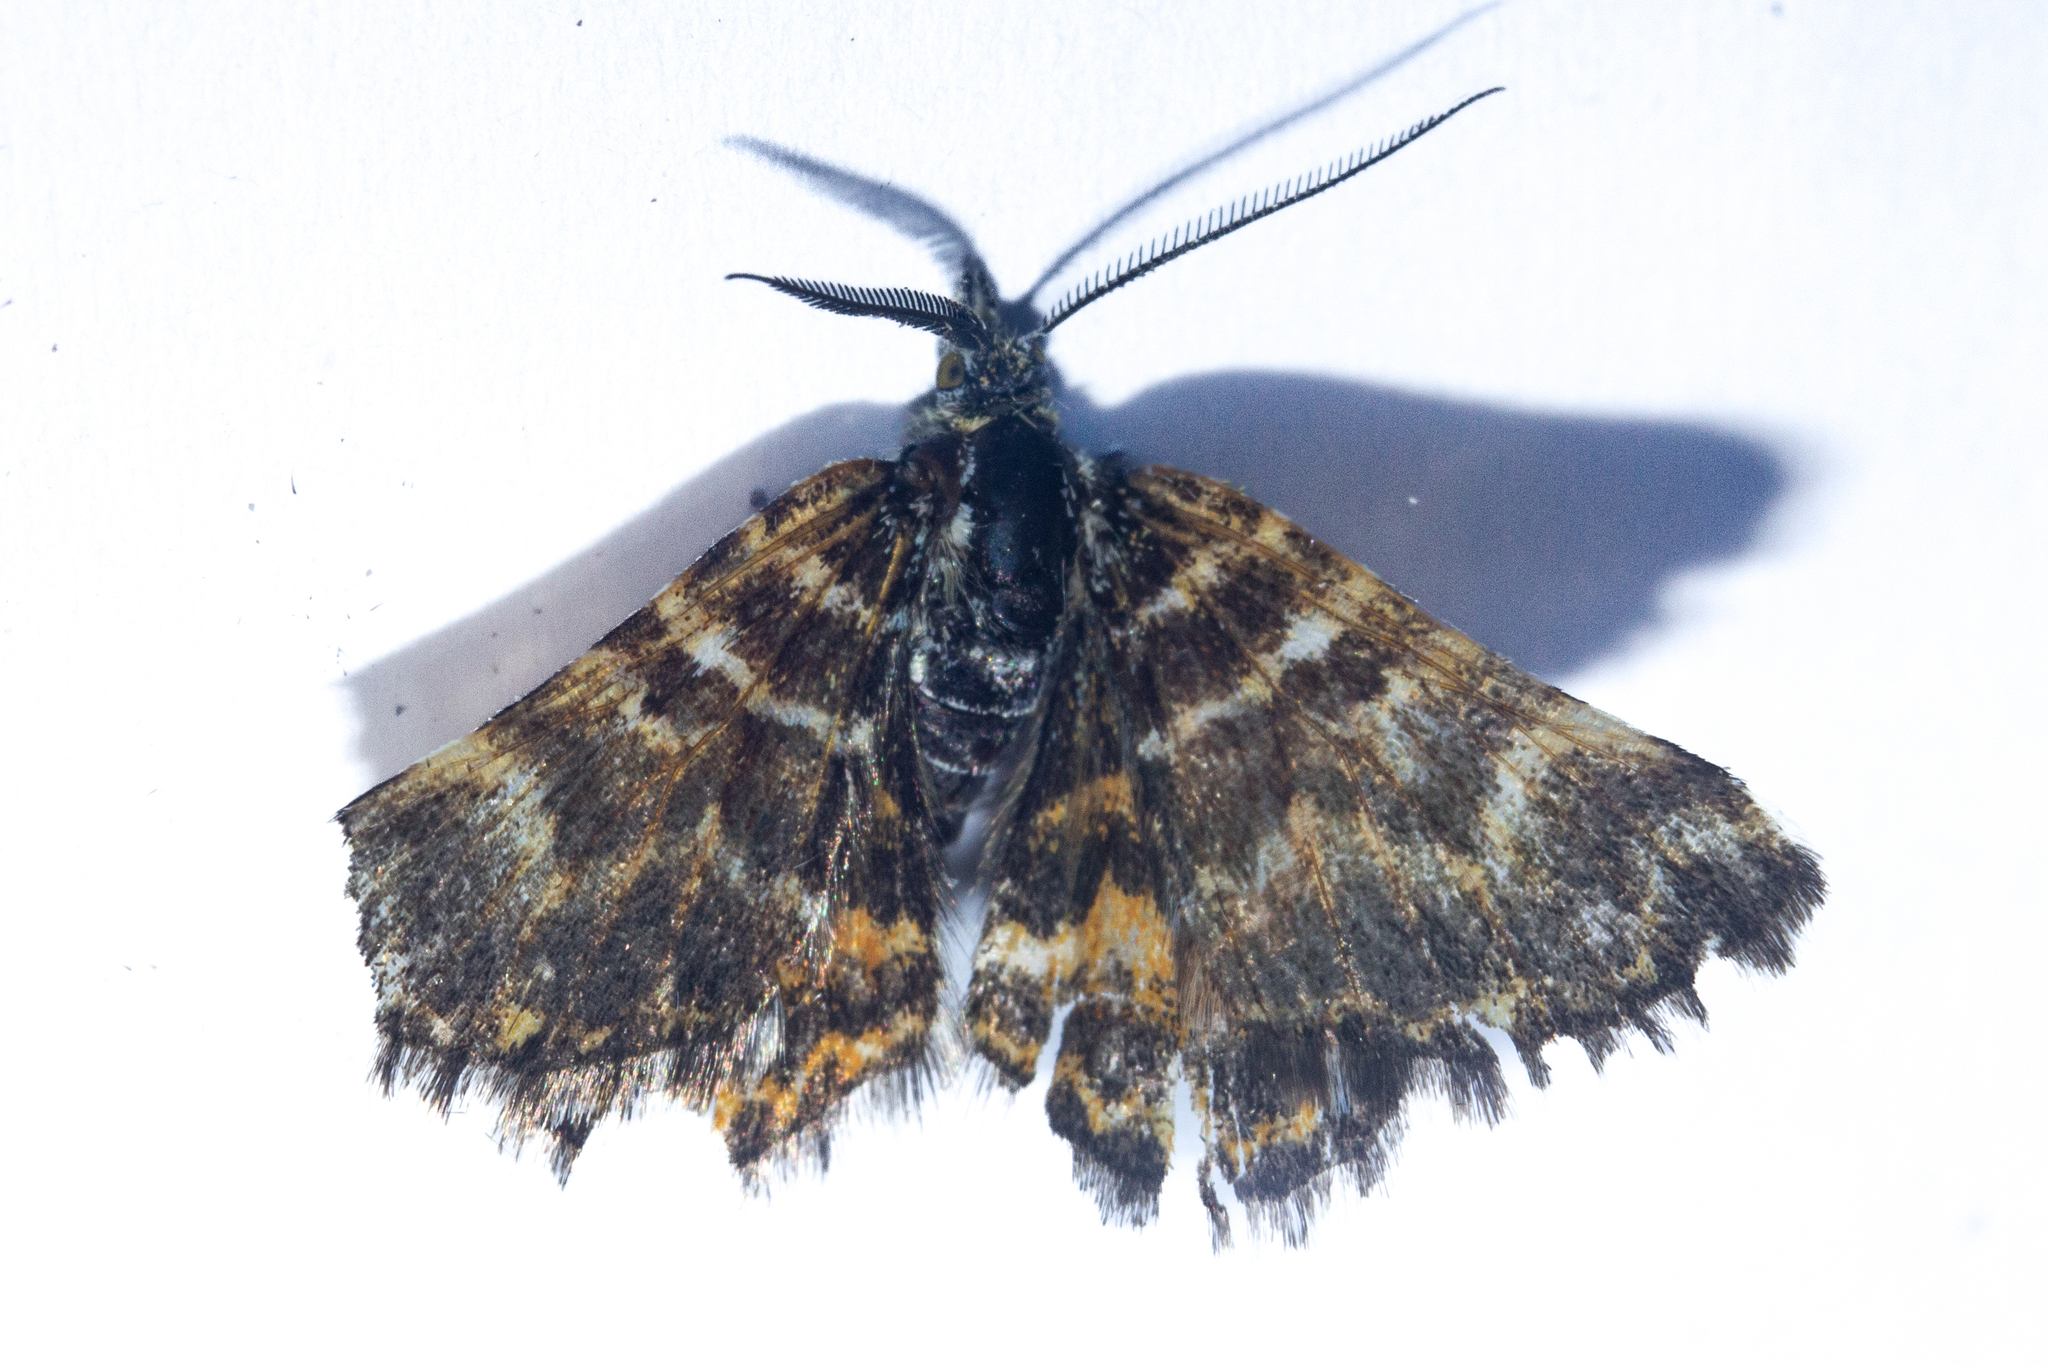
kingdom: Animalia
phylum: Arthropoda
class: Insecta
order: Lepidoptera
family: Geometridae
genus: Notoreas
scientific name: Notoreas
